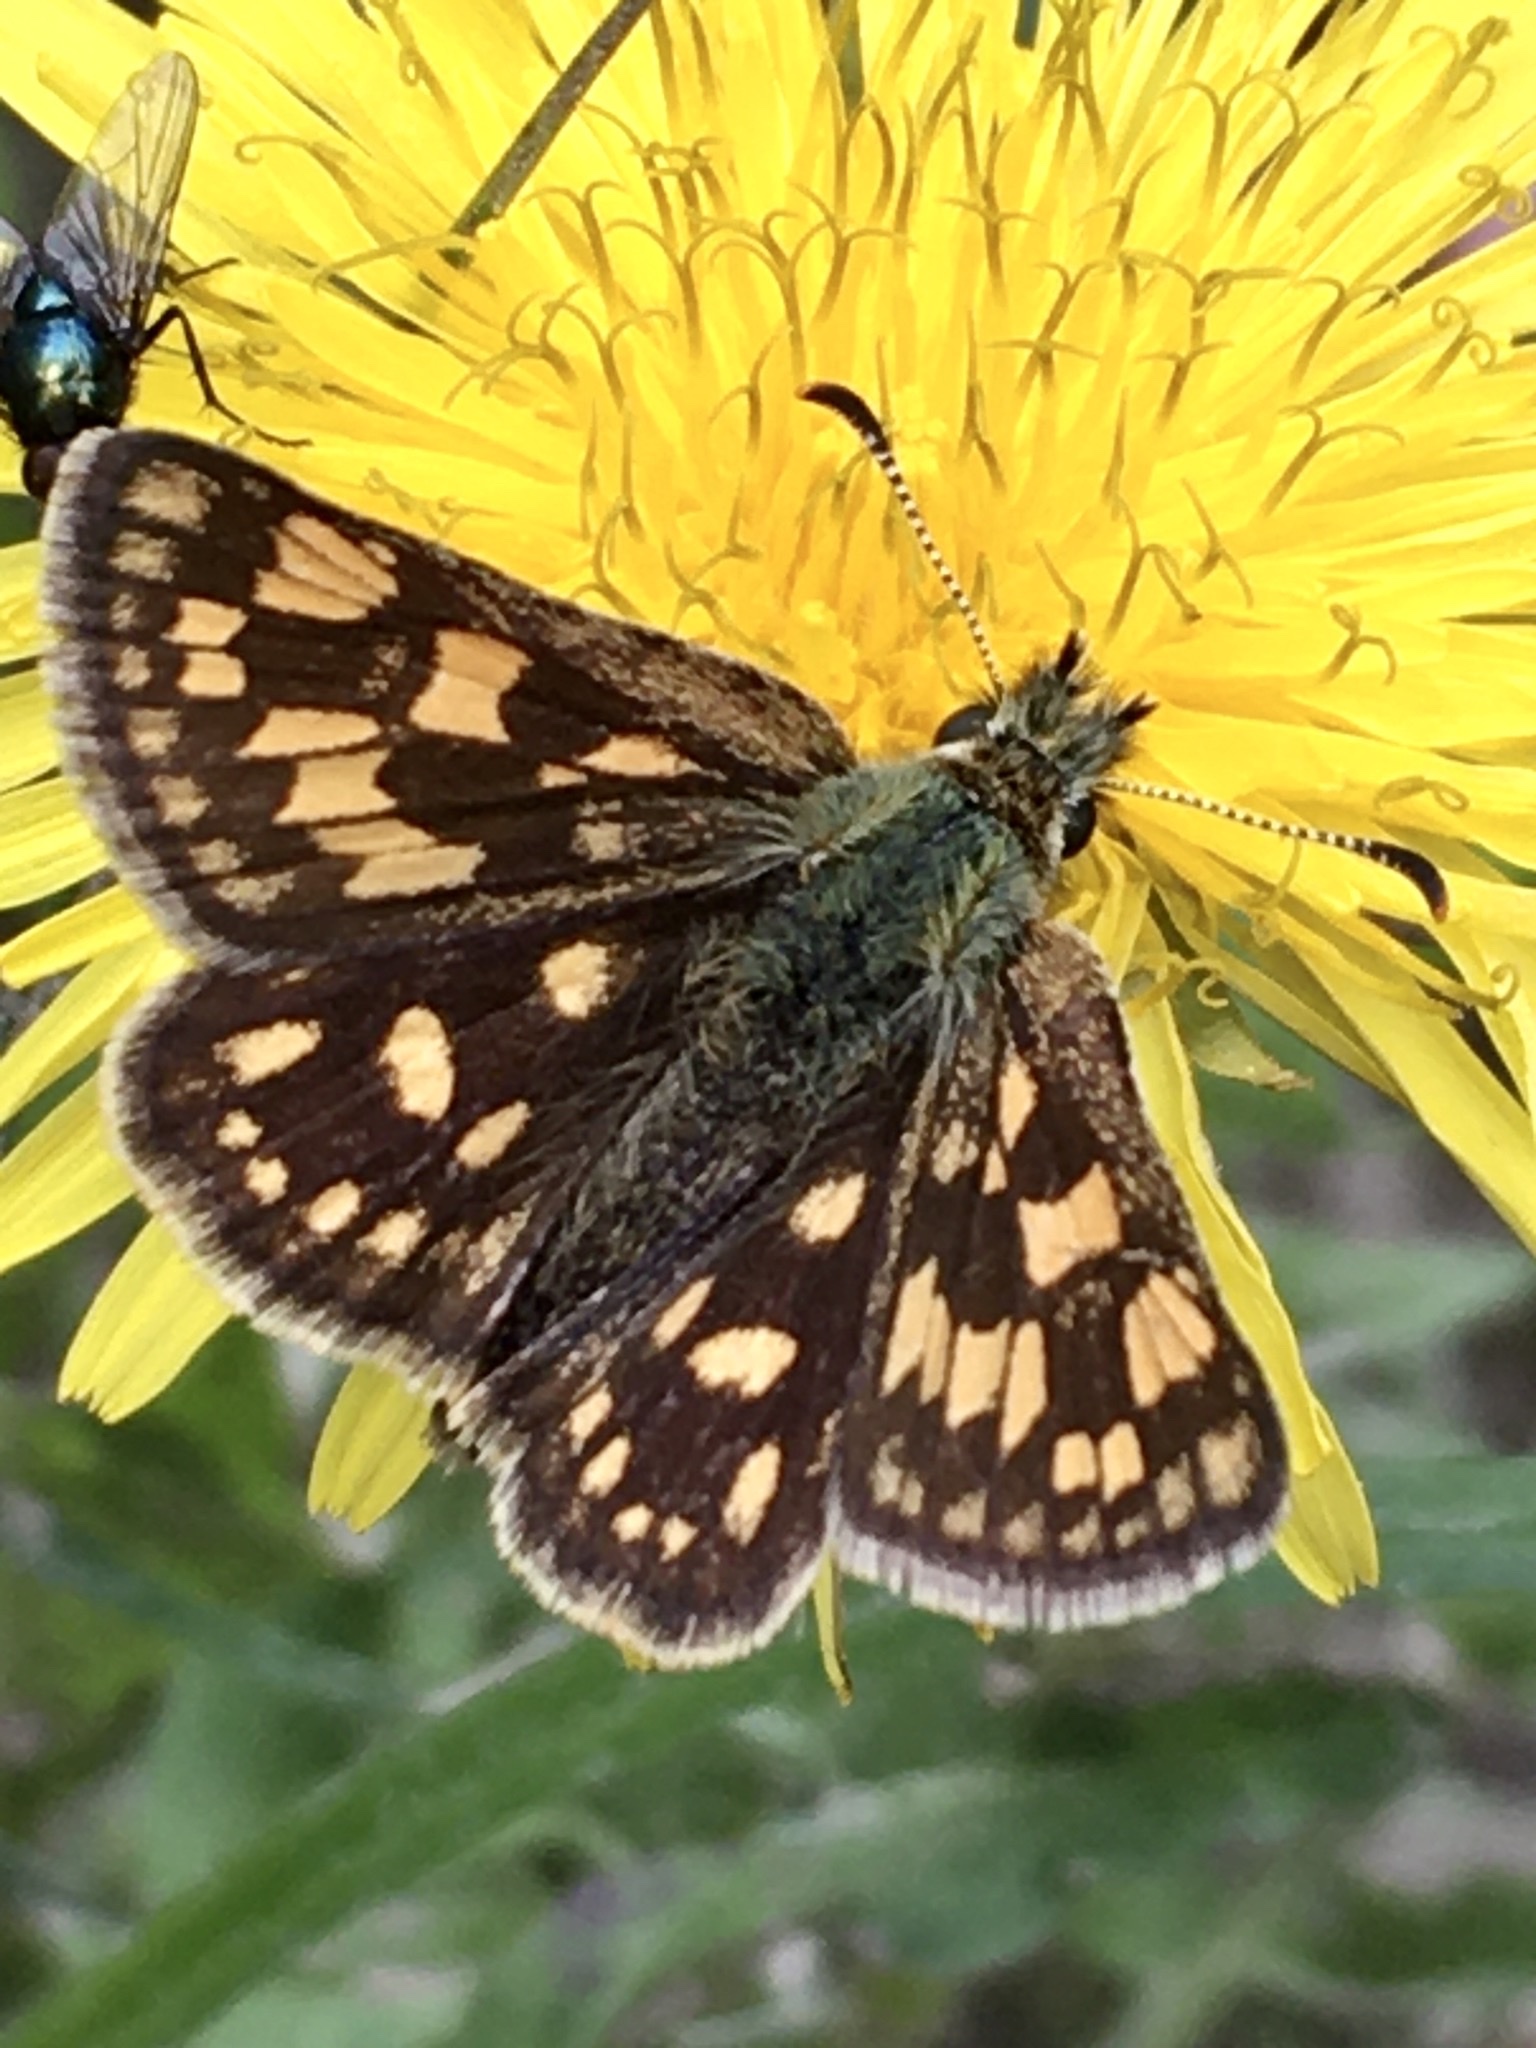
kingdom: Animalia
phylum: Arthropoda
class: Insecta
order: Lepidoptera
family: Hesperiidae
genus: Carterocephalus
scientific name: Carterocephalus palaemon
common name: Chequered skipper
